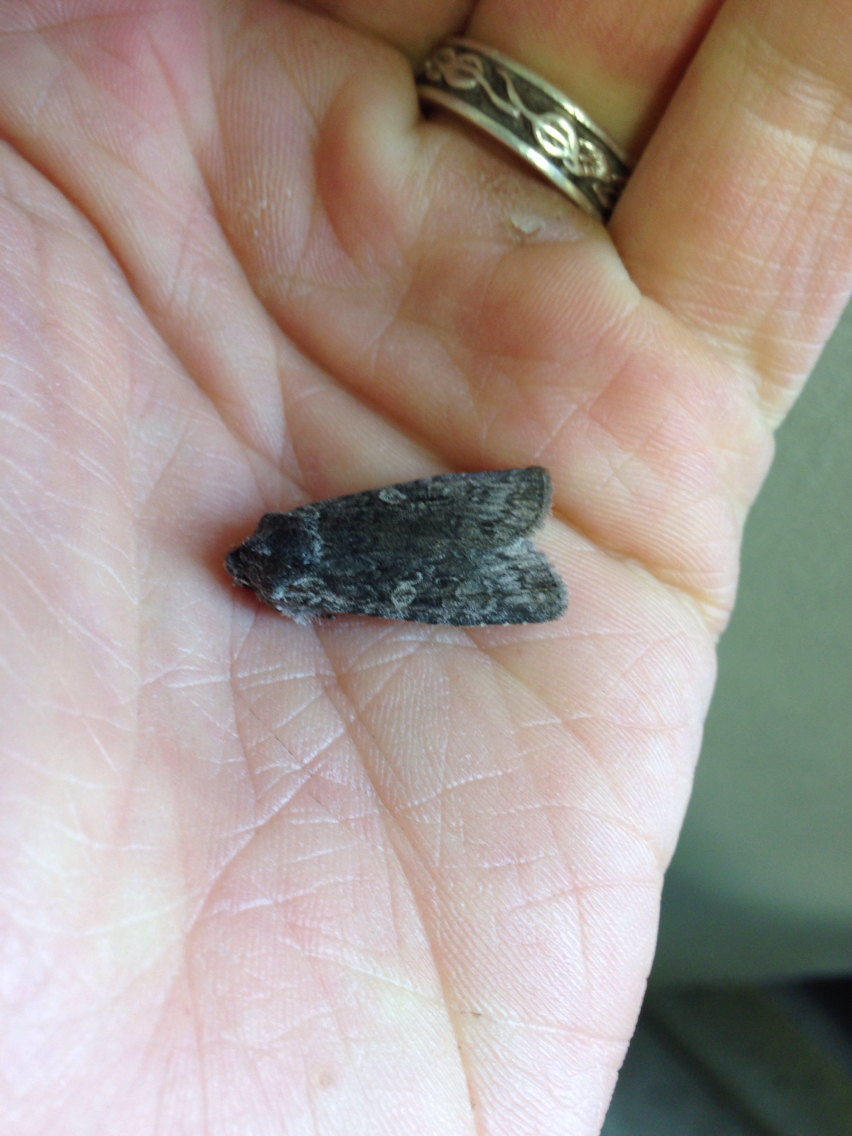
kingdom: Animalia
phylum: Arthropoda
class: Insecta
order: Lepidoptera
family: Noctuidae
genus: Lithophane
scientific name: Lithophane grotei
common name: Grote's pinion moth
